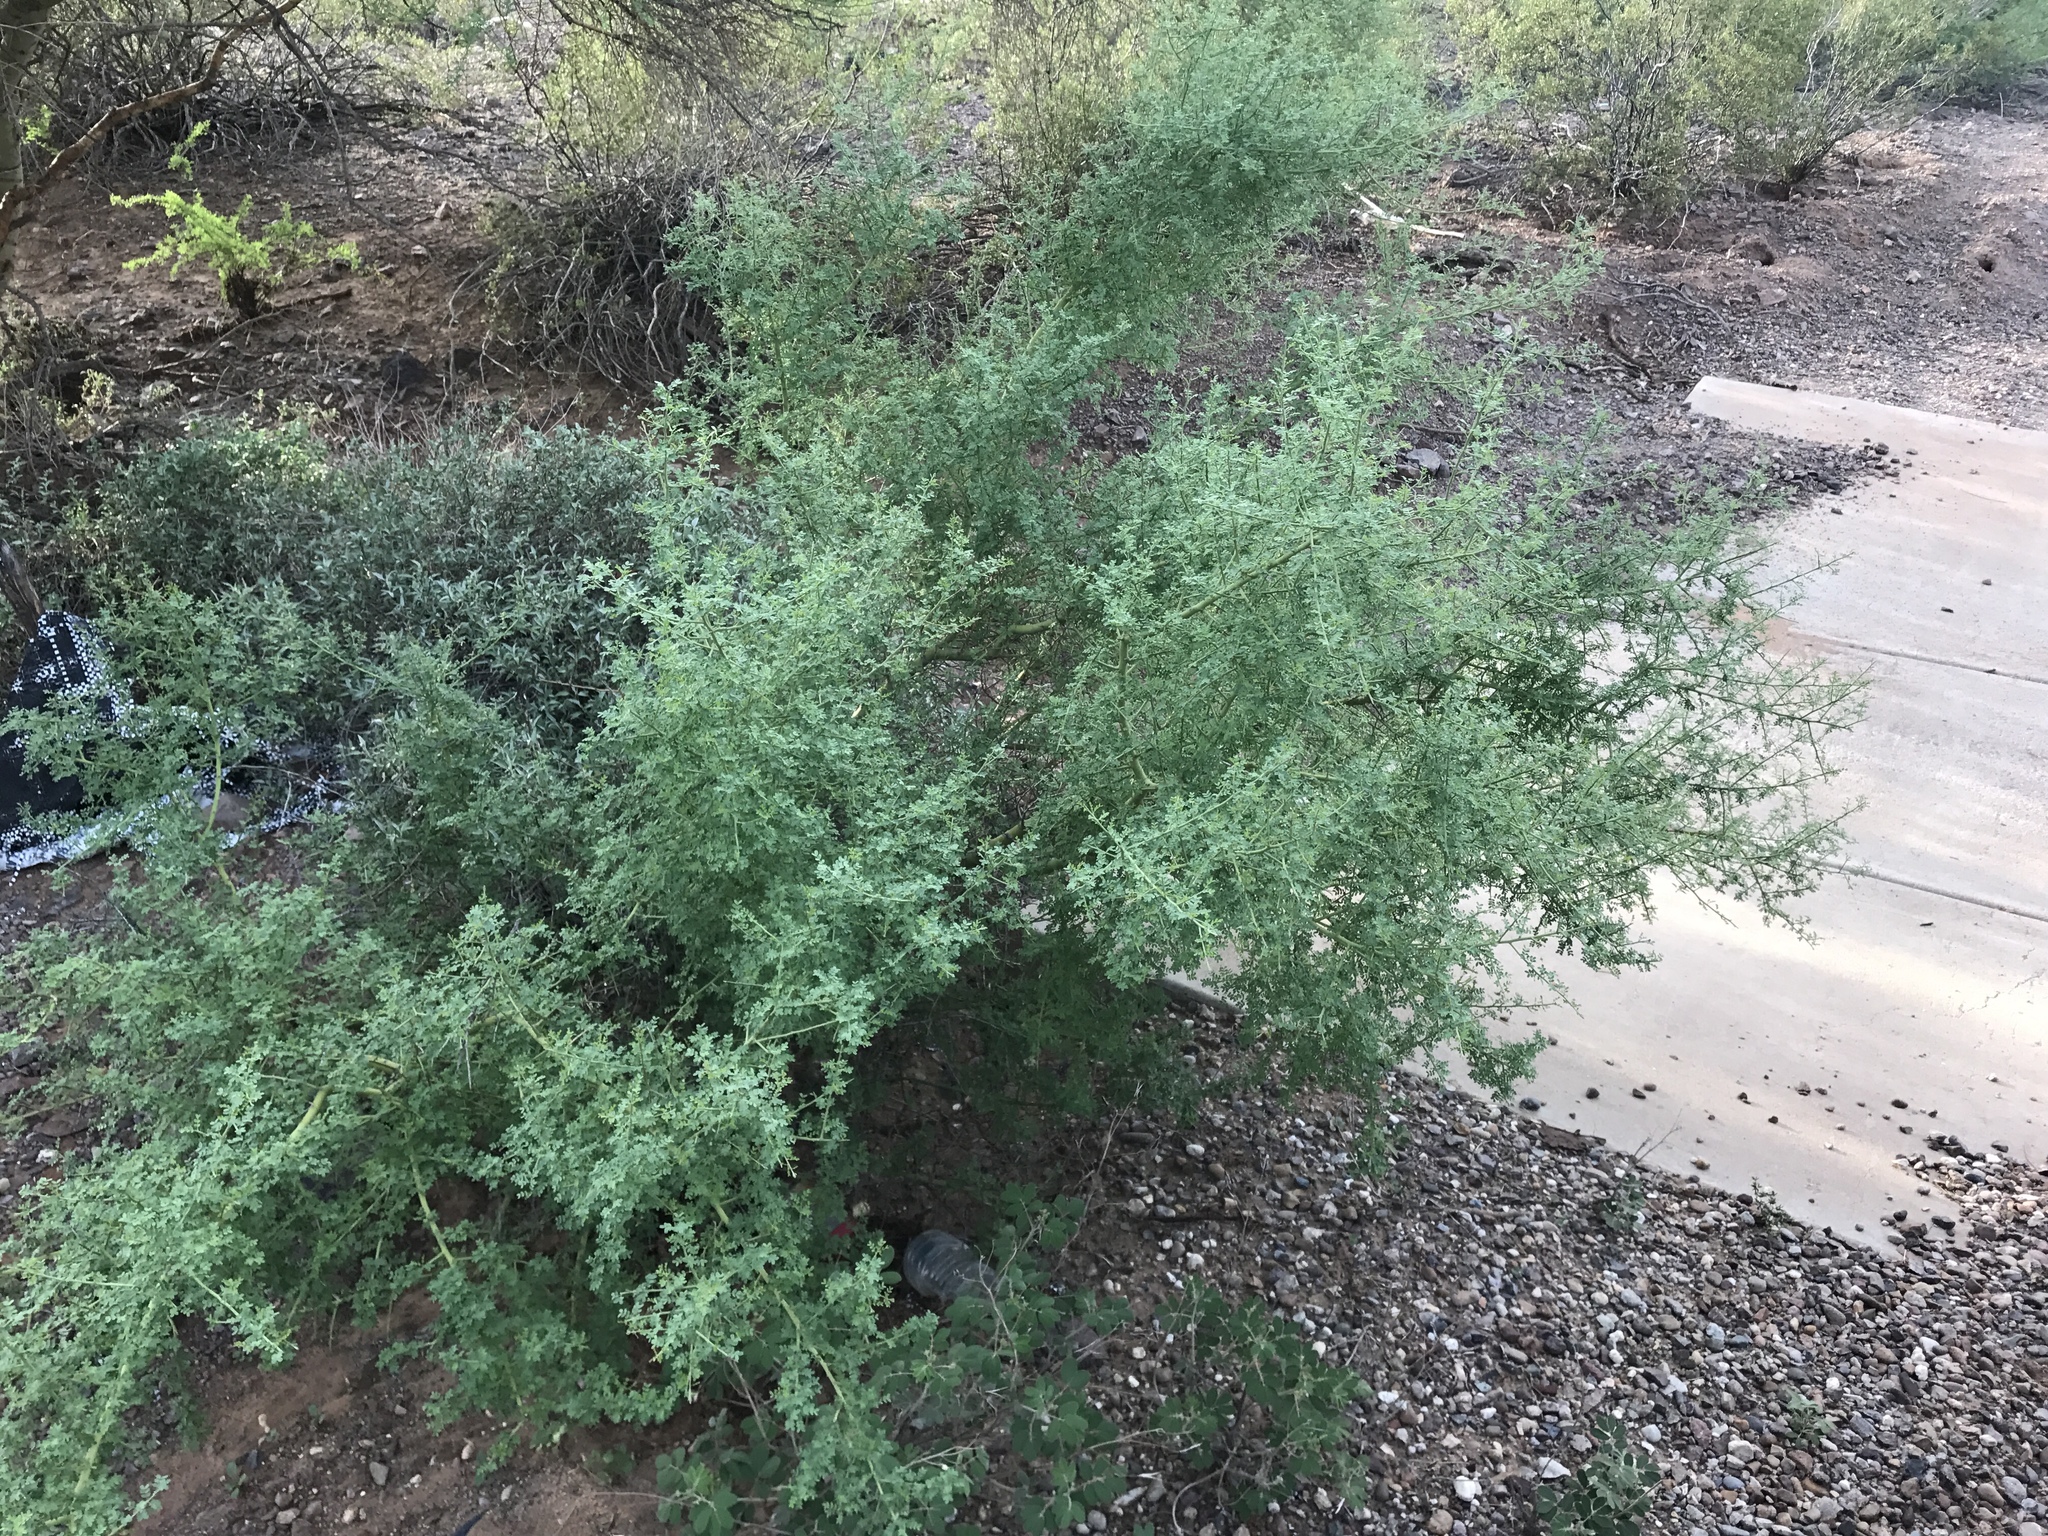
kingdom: Plantae
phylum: Tracheophyta
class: Magnoliopsida
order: Fabales
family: Fabaceae
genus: Parkinsonia
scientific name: Parkinsonia florida
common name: Blue paloverde
